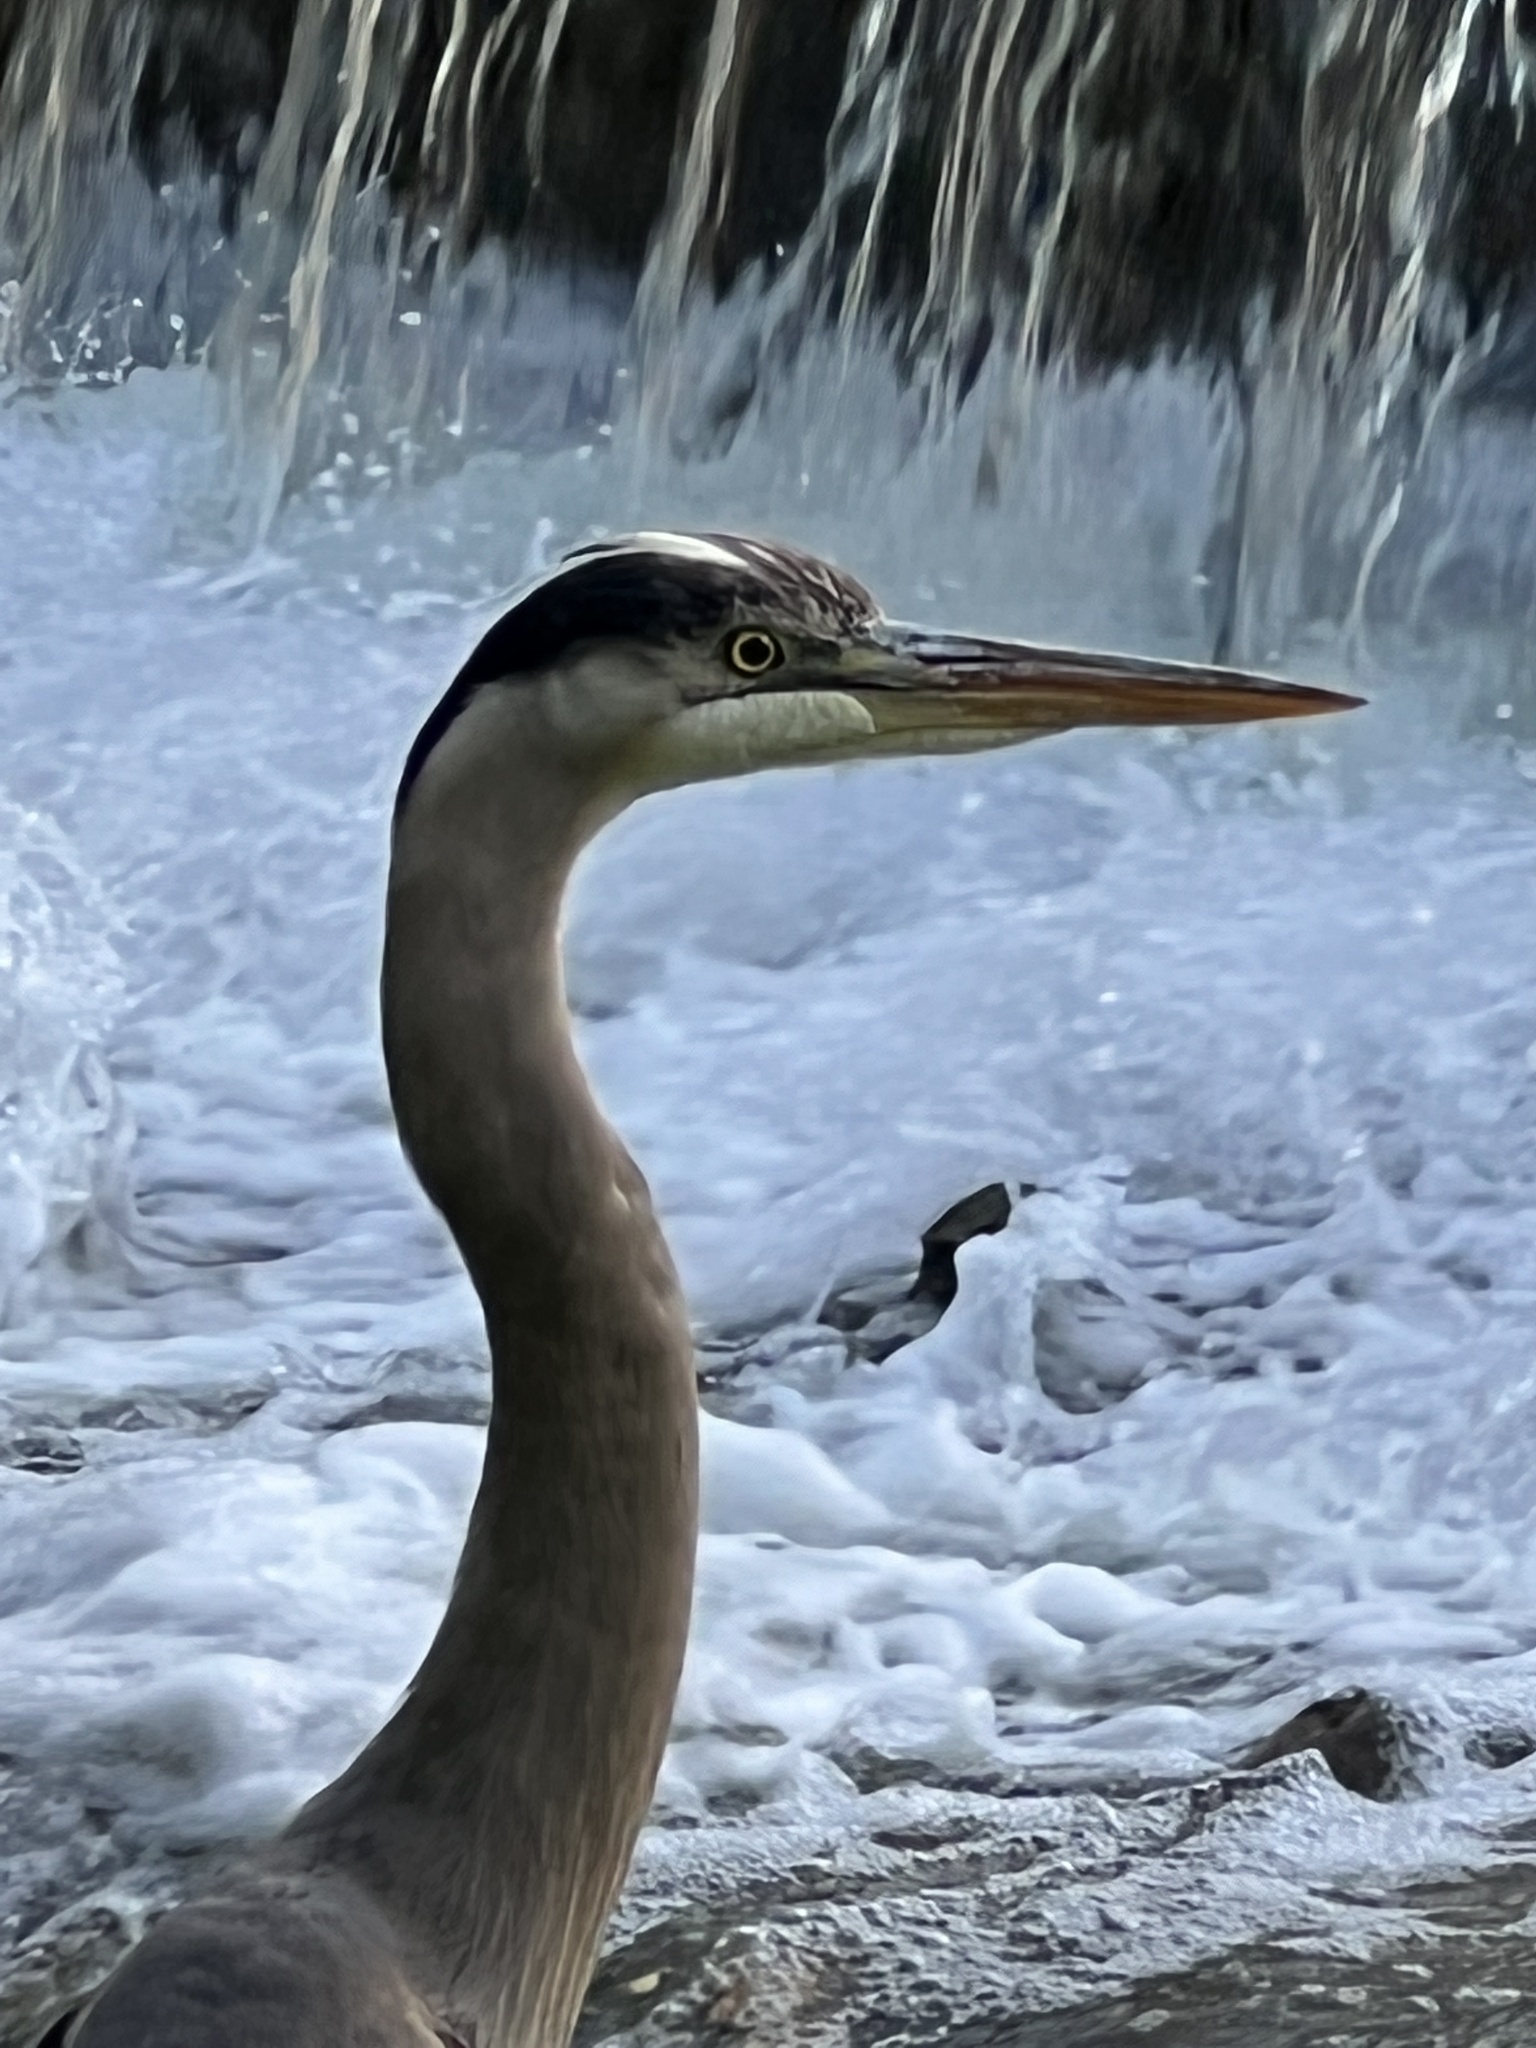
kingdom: Animalia
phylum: Chordata
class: Aves
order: Pelecaniformes
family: Ardeidae
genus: Ardea
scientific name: Ardea herodias
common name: Great blue heron
